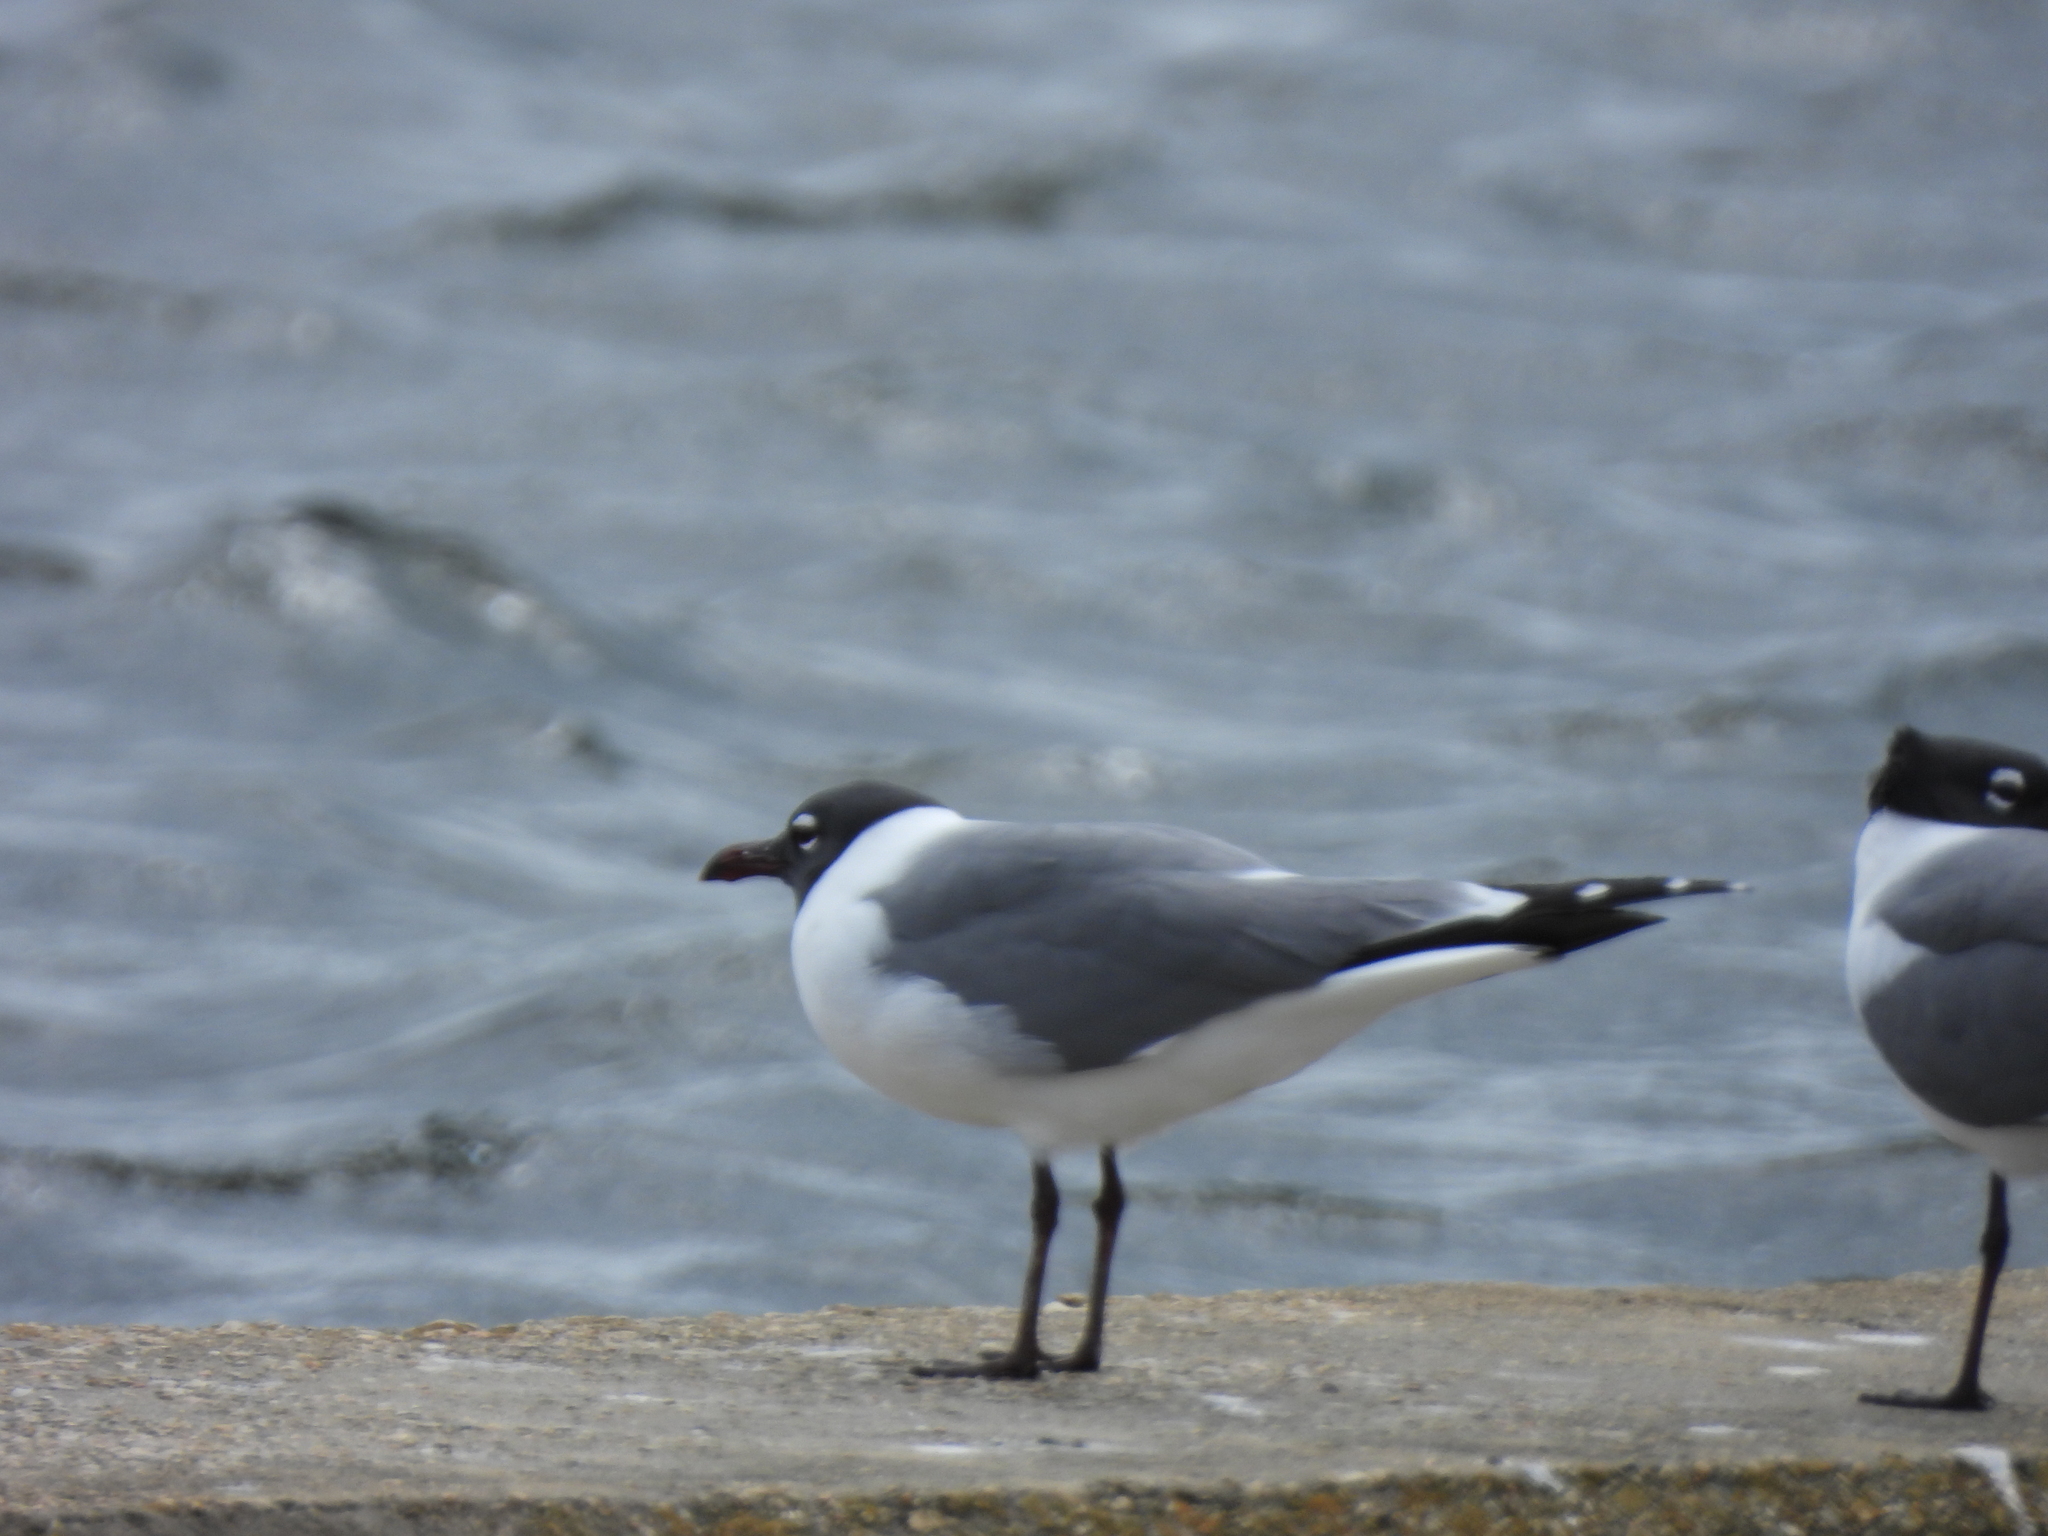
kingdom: Animalia
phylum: Chordata
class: Aves
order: Charadriiformes
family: Laridae
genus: Leucophaeus
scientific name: Leucophaeus atricilla
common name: Laughing gull
